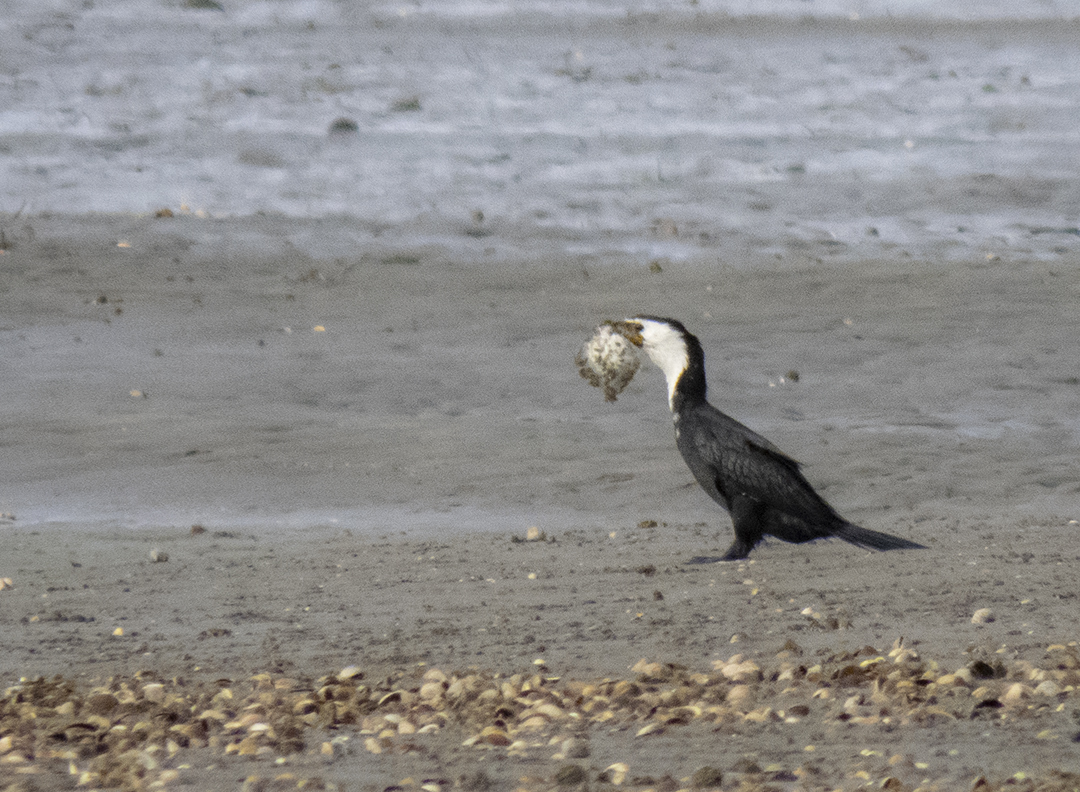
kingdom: Animalia
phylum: Chordata
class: Aves
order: Suliformes
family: Phalacrocoracidae
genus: Microcarbo
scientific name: Microcarbo melanoleucos
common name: Little pied cormorant
